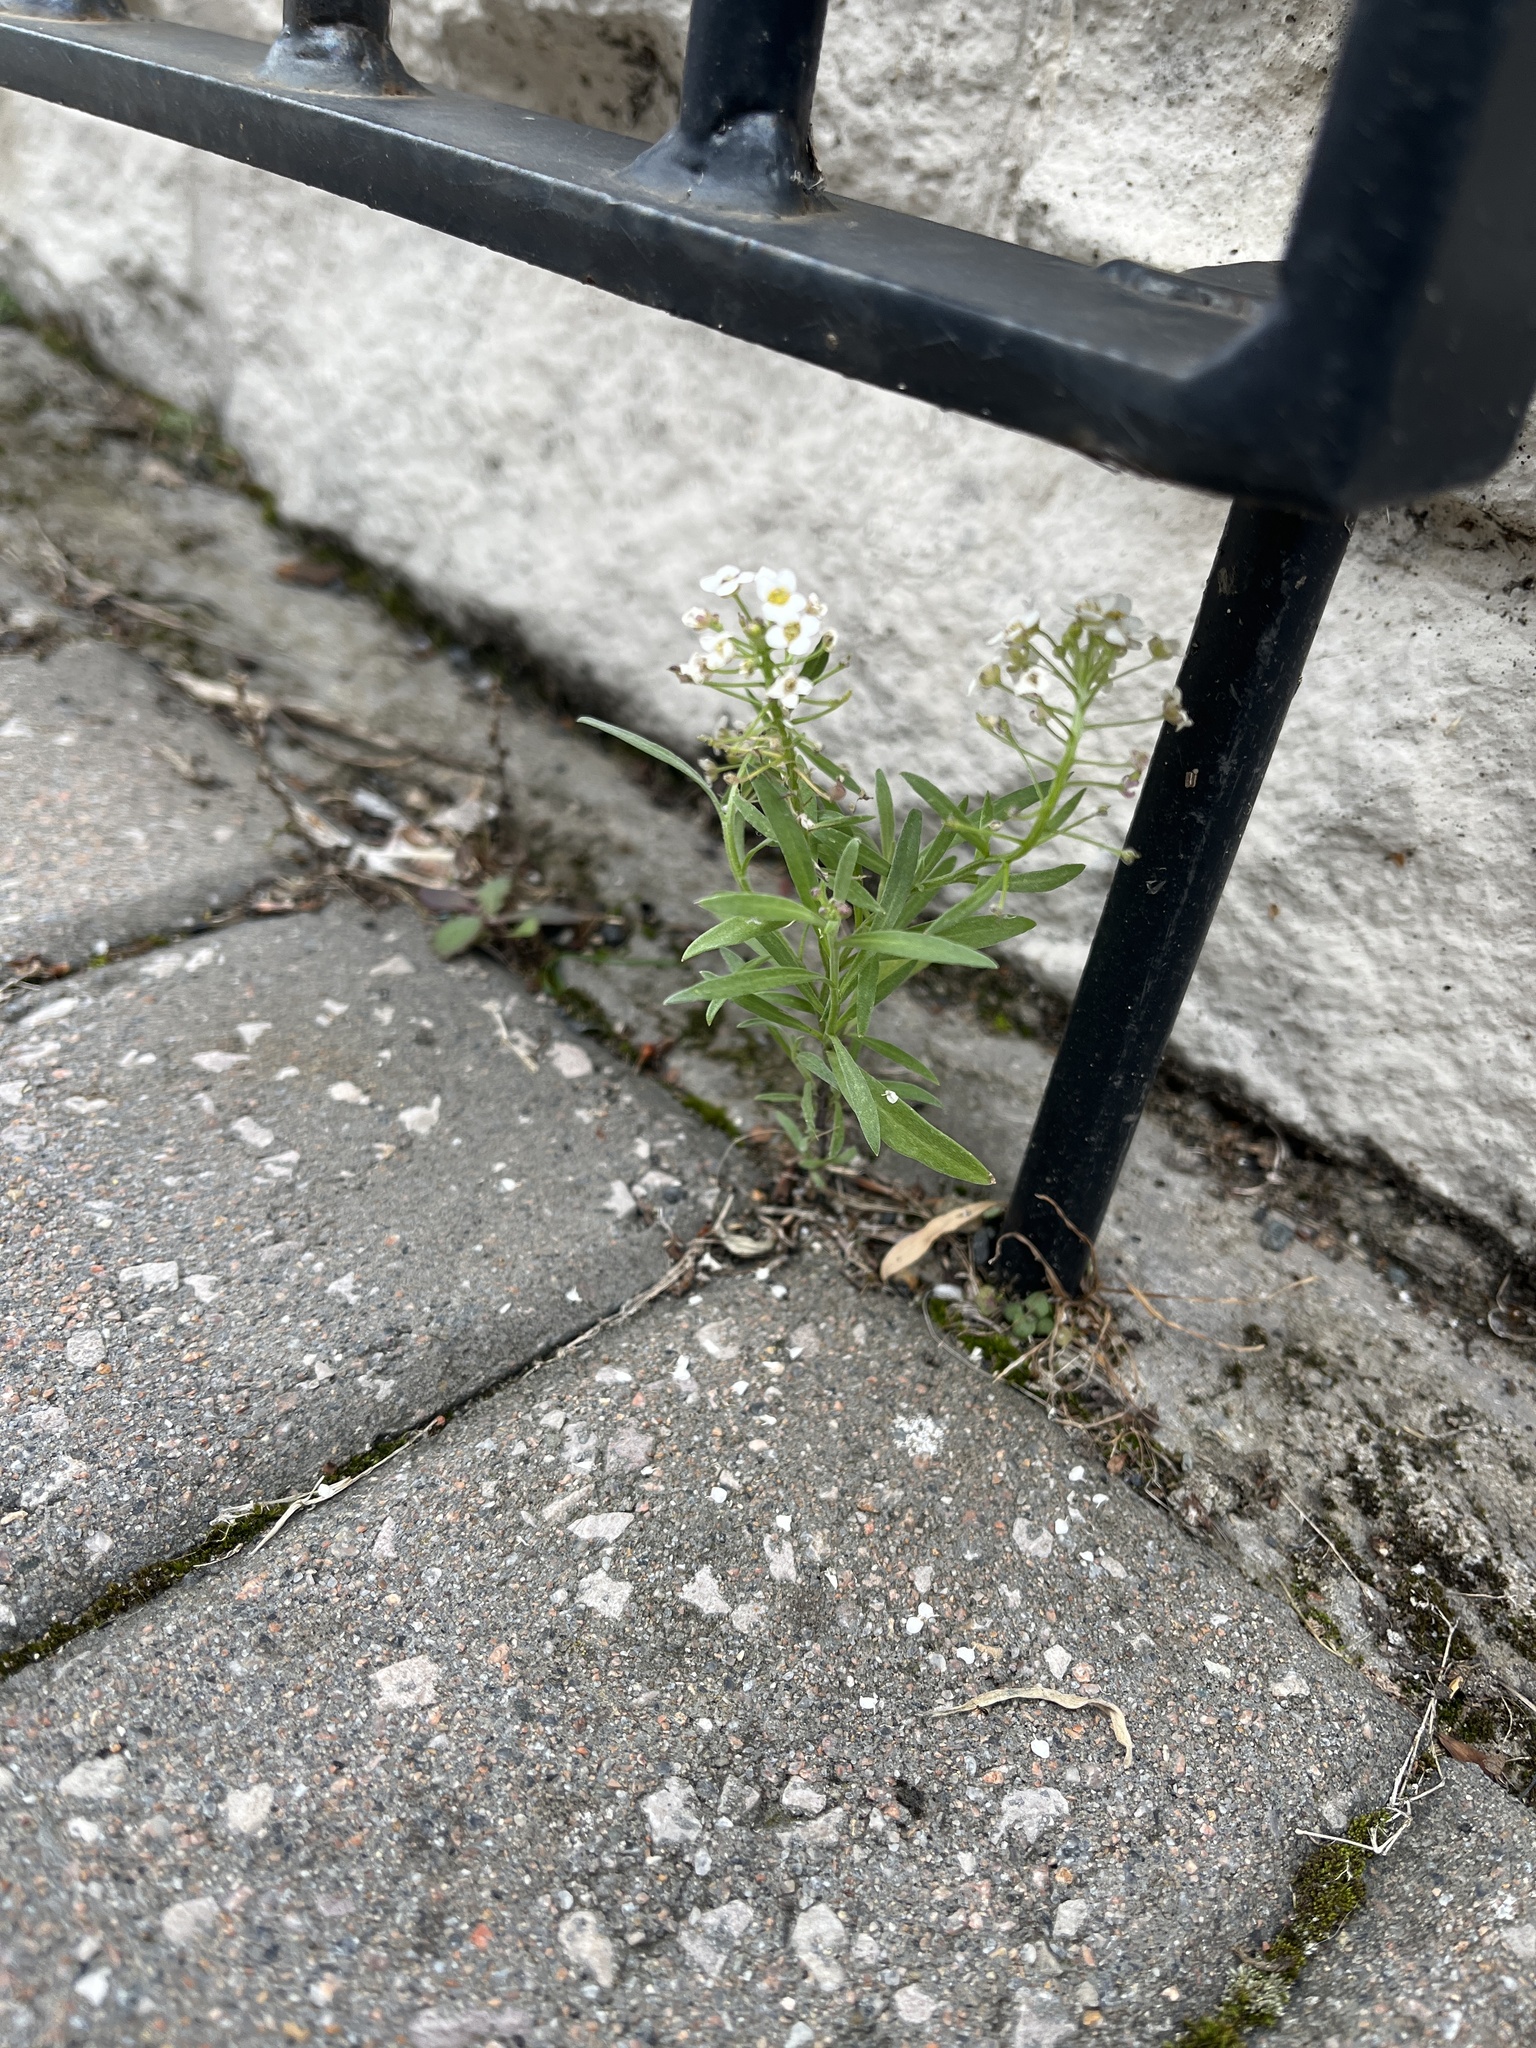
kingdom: Plantae
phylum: Tracheophyta
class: Magnoliopsida
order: Brassicales
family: Brassicaceae
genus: Lobularia
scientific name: Lobularia maritima
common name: Sweet alison
